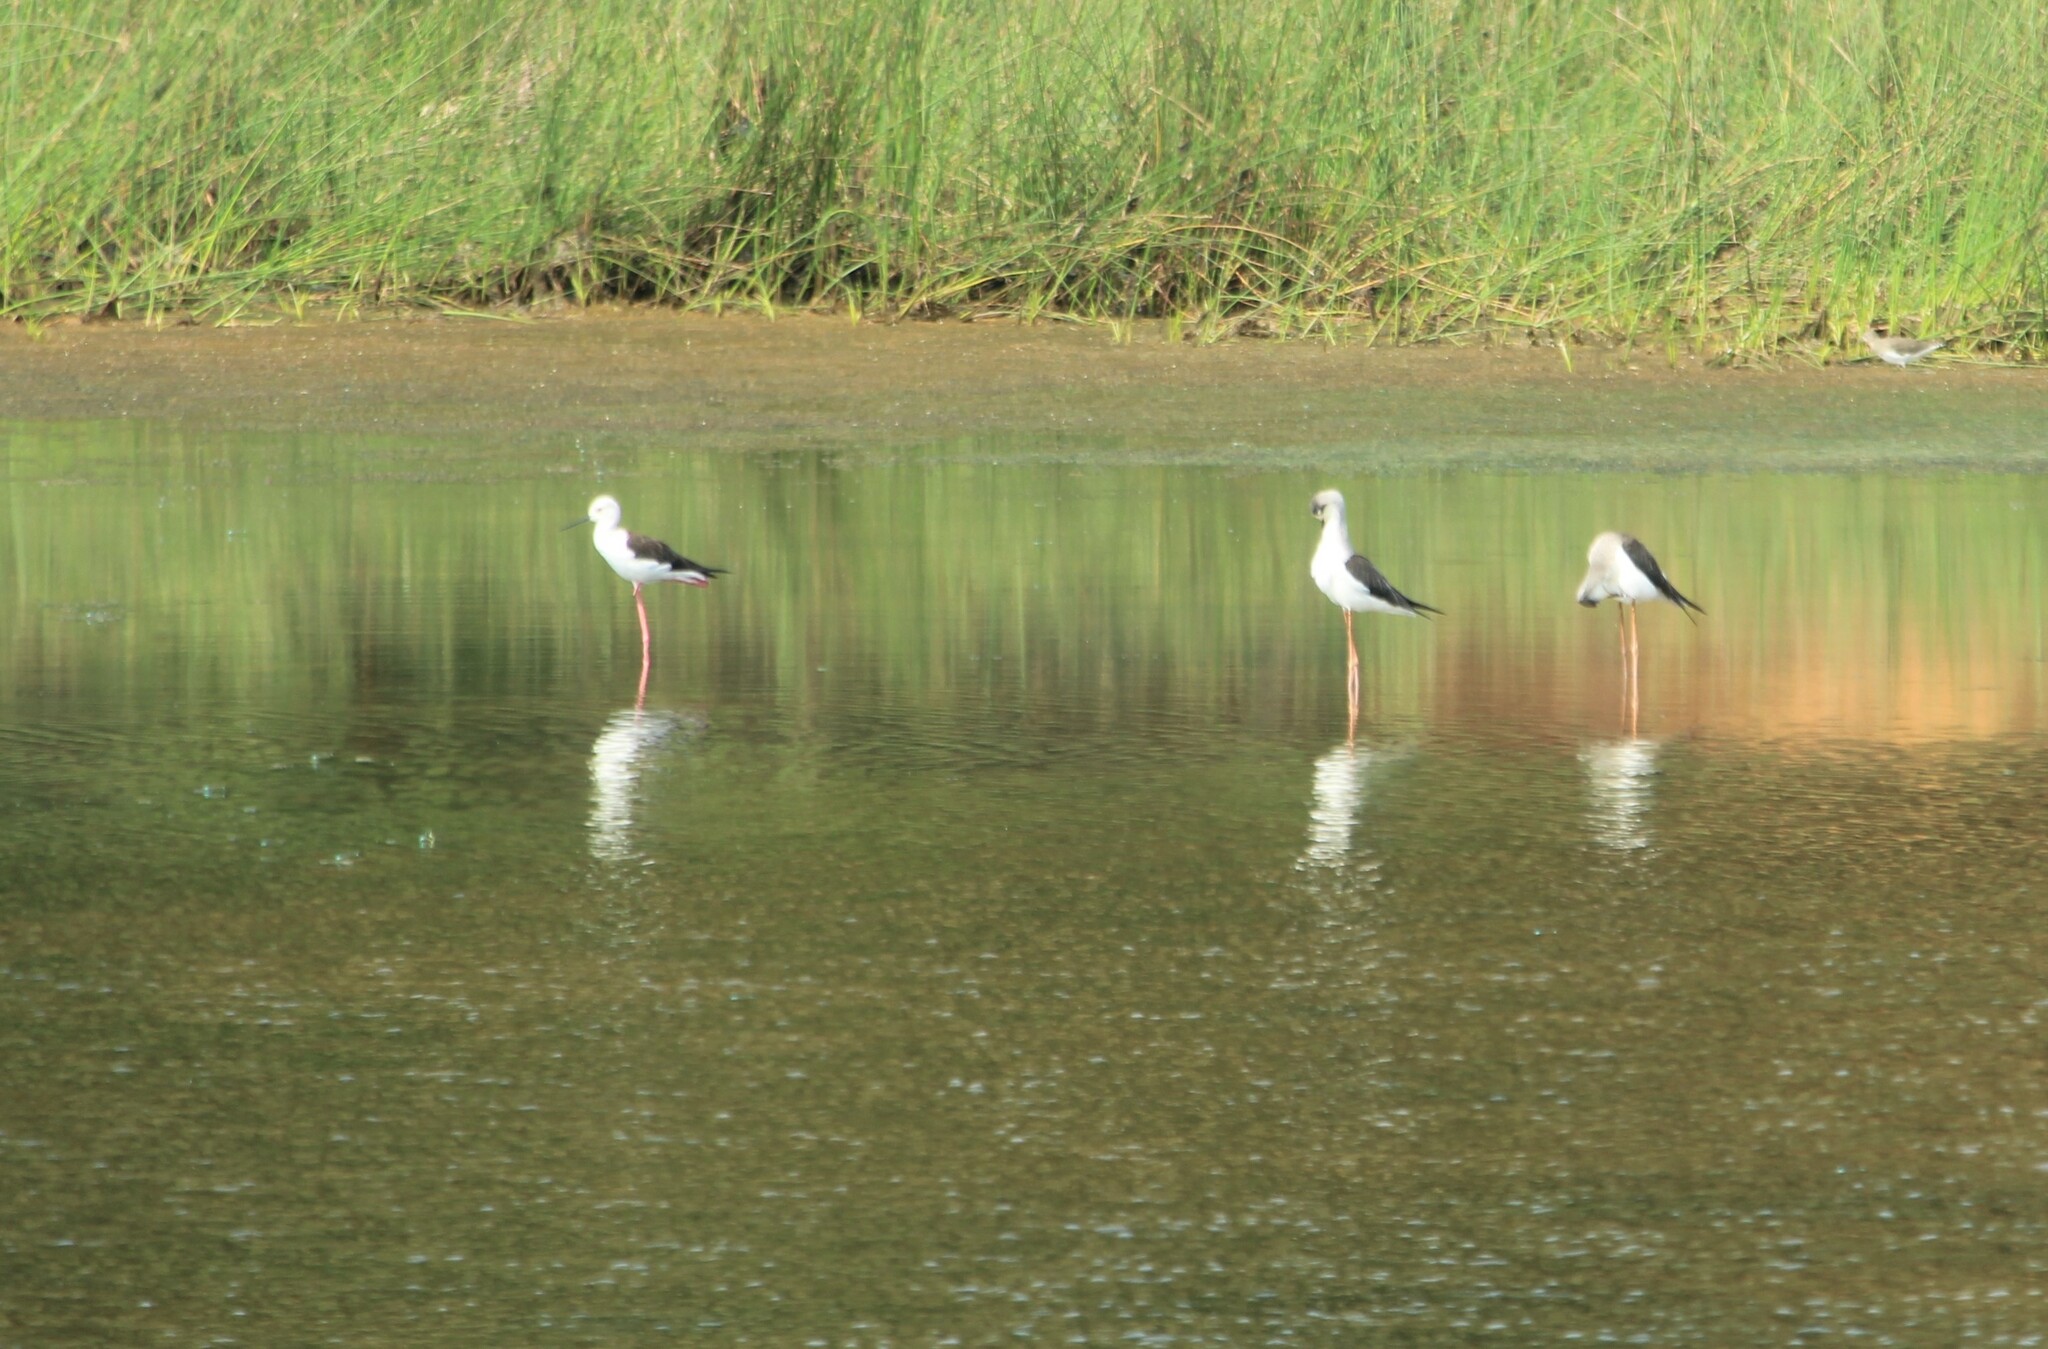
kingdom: Animalia
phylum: Chordata
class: Aves
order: Charadriiformes
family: Recurvirostridae
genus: Himantopus
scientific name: Himantopus himantopus
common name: Black-winged stilt
